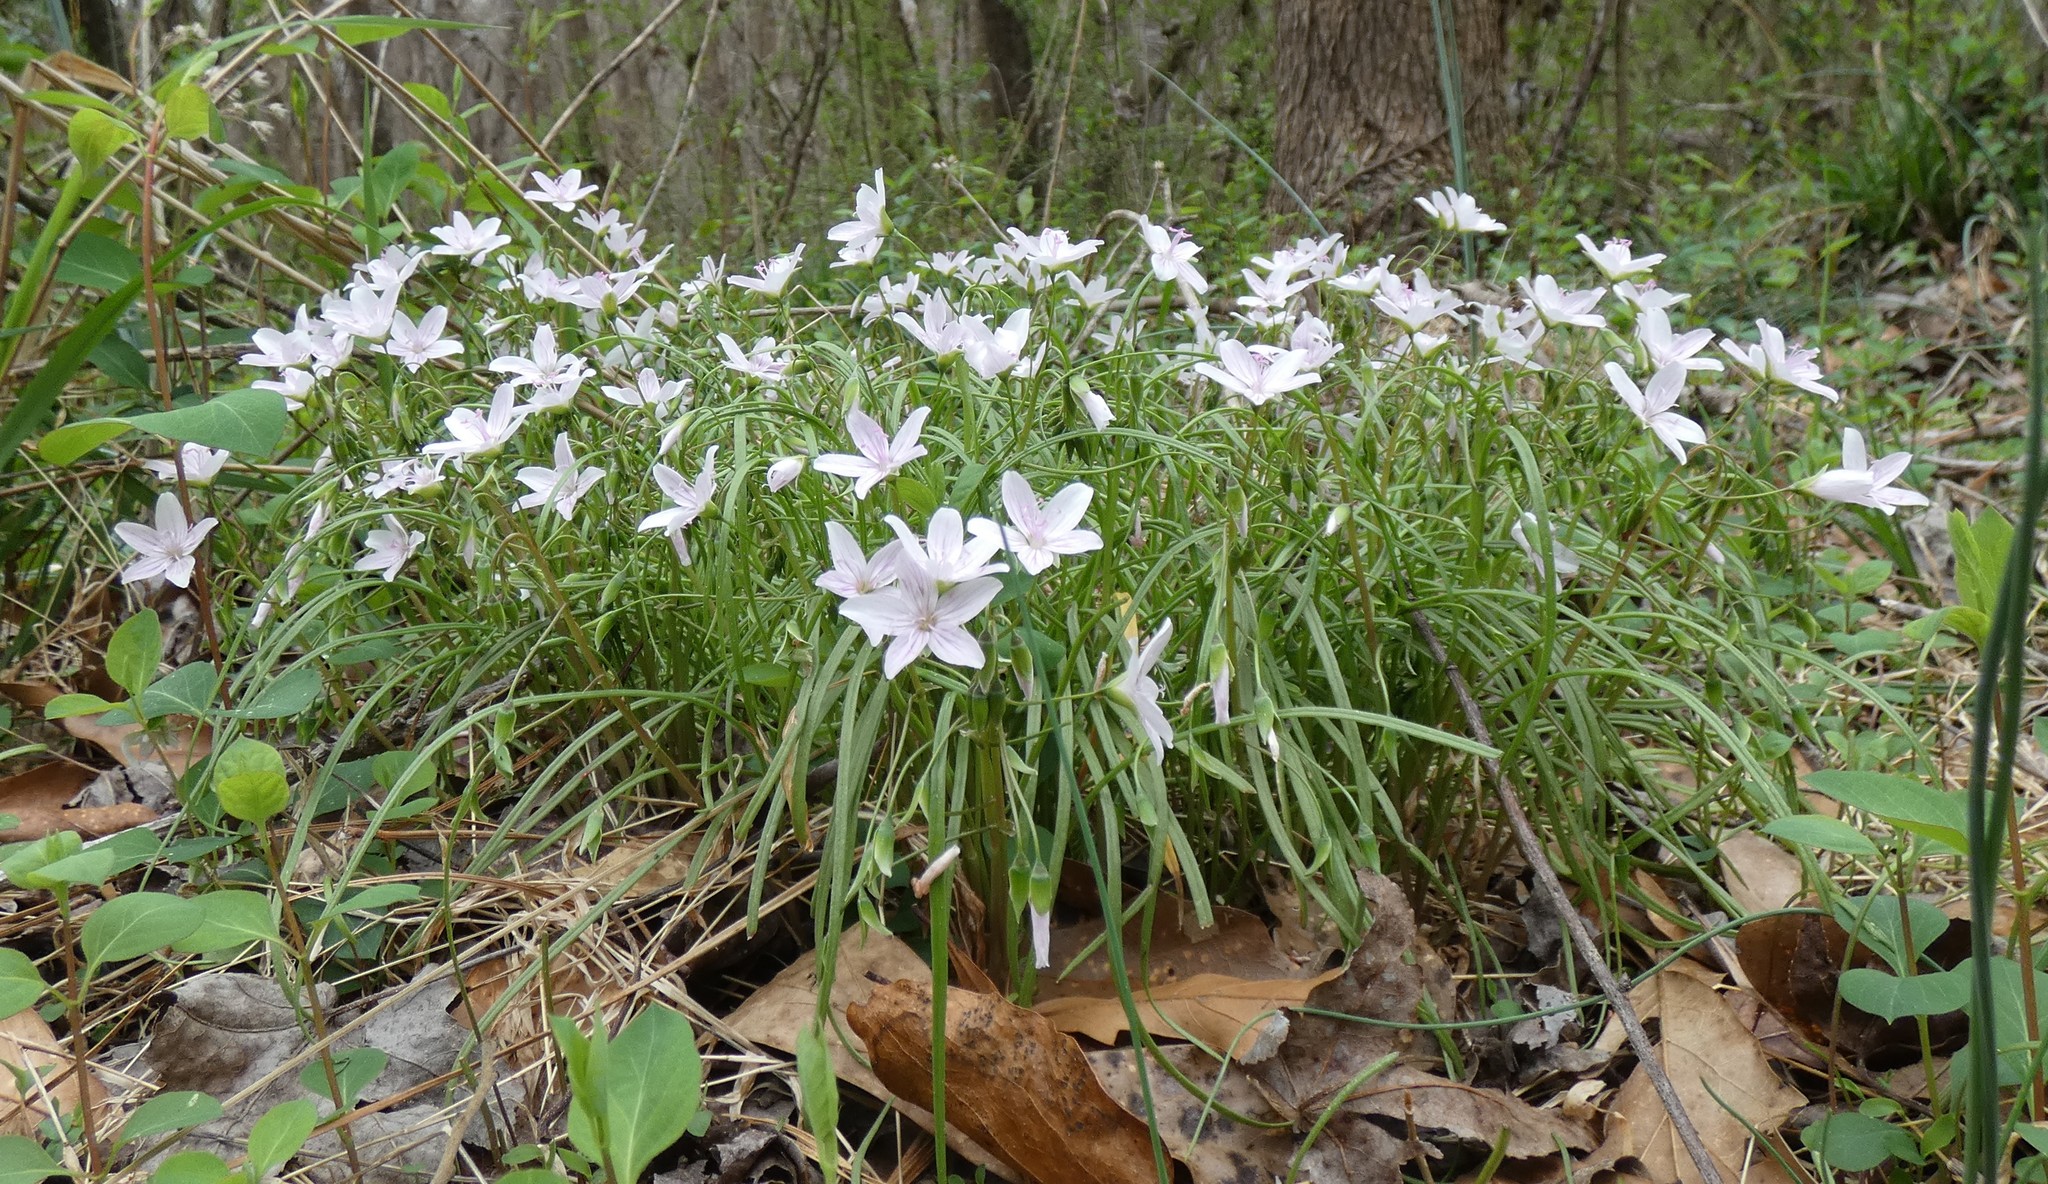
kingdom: Plantae
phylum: Tracheophyta
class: Magnoliopsida
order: Caryophyllales
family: Montiaceae
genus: Claytonia
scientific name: Claytonia virginica
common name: Virginia springbeauty
